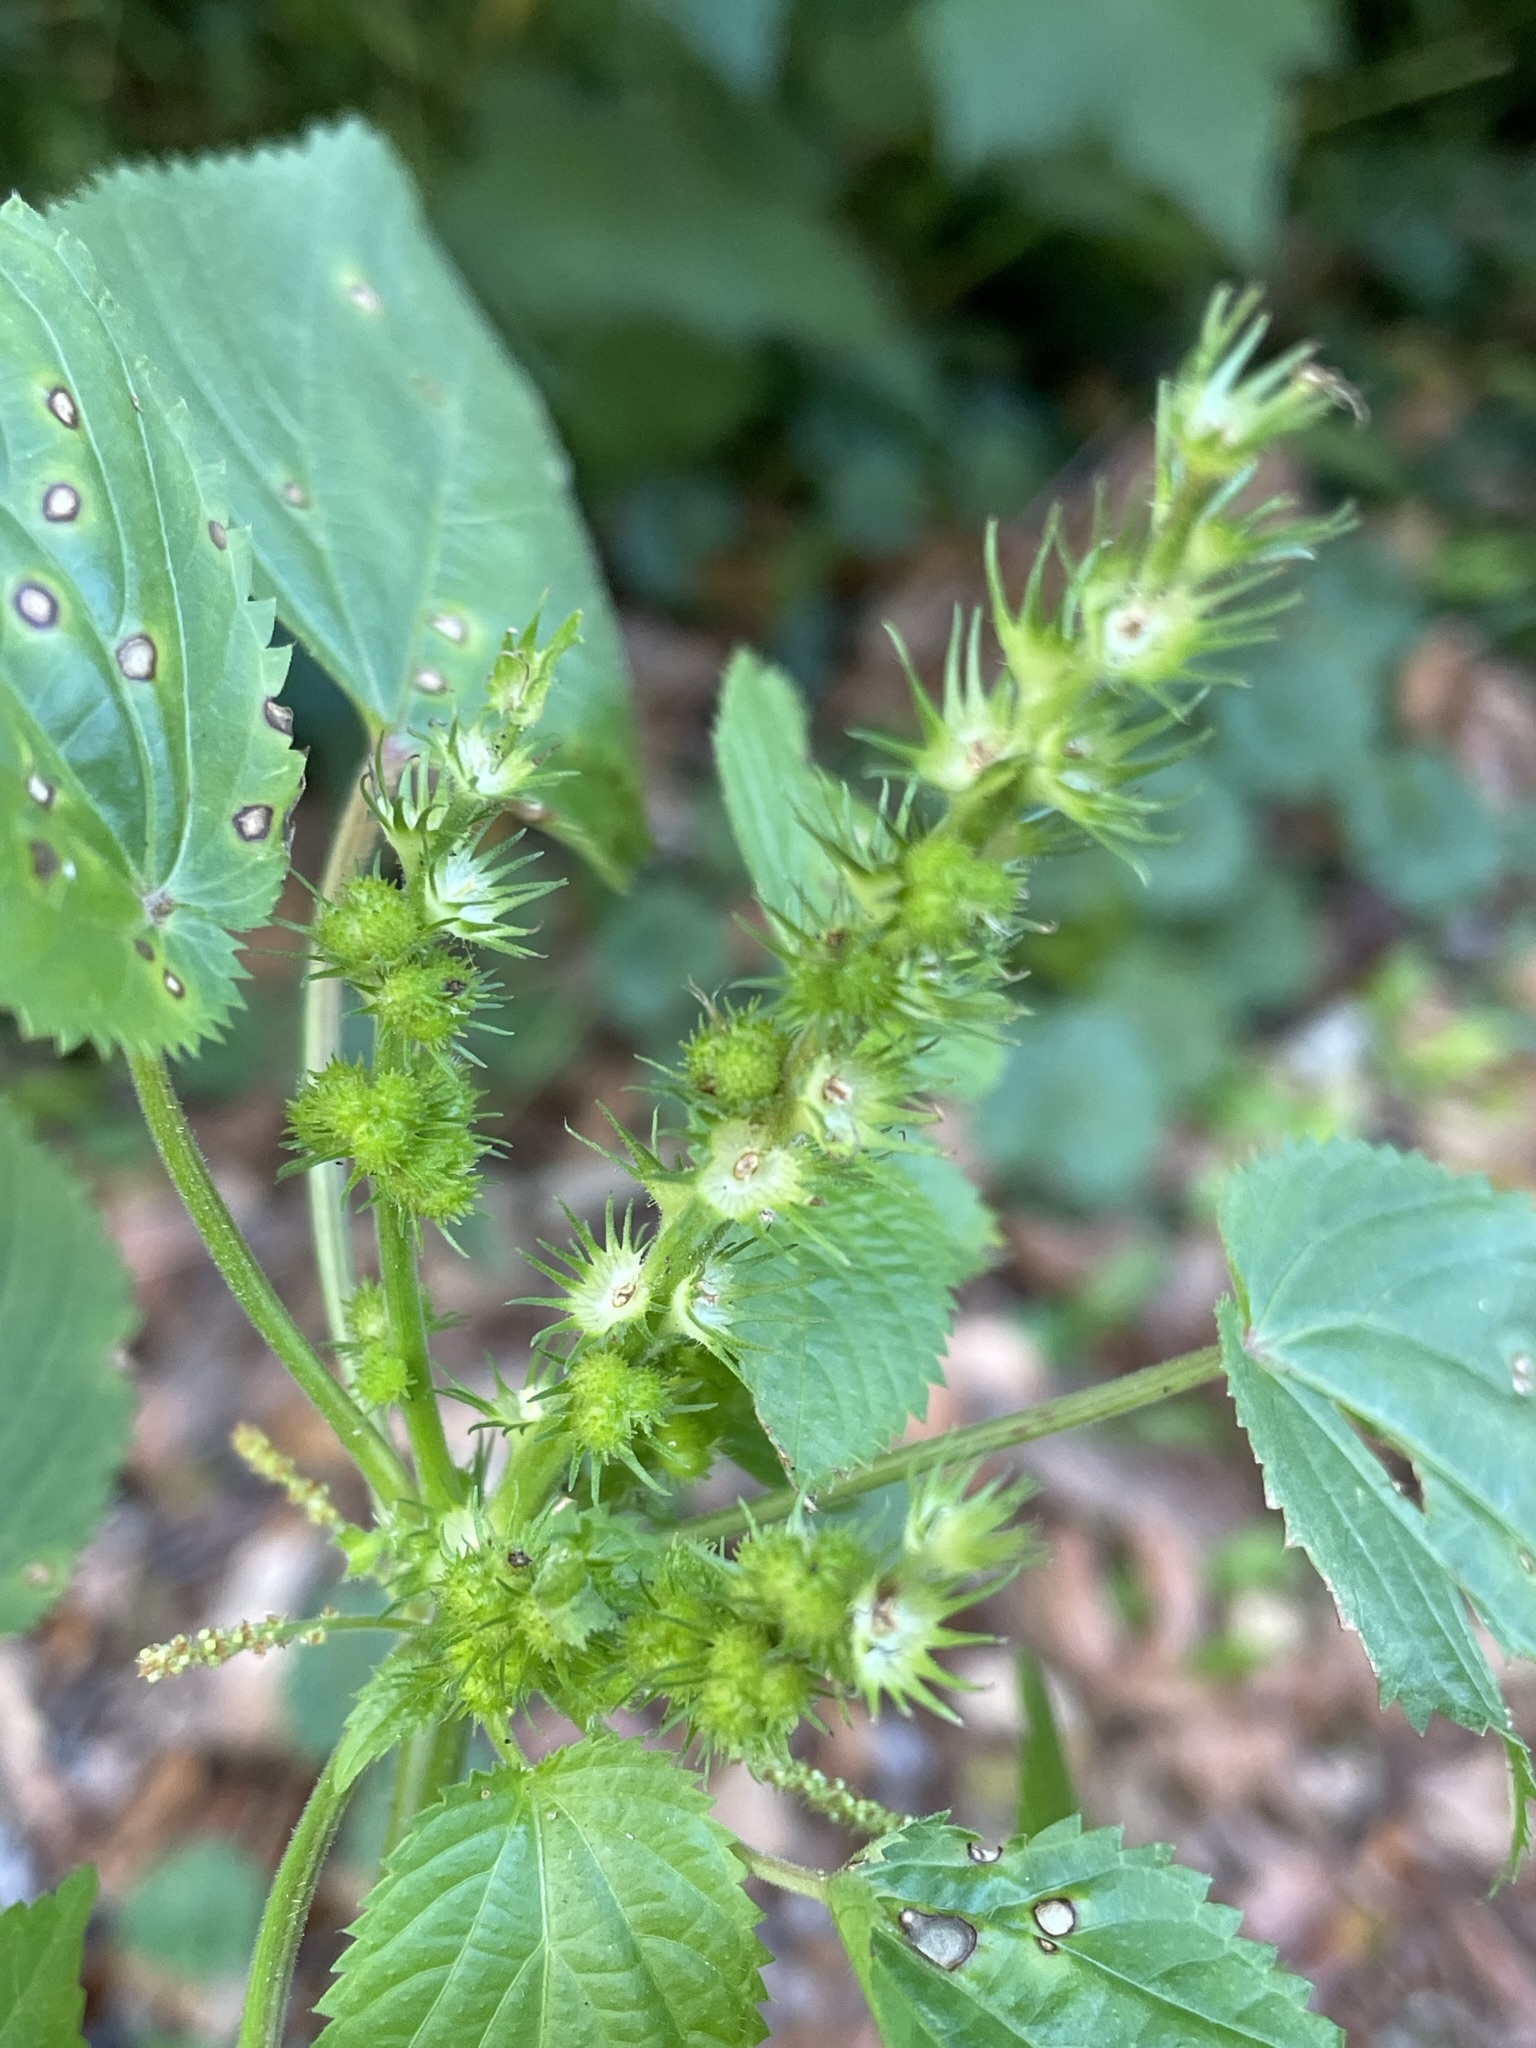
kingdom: Plantae
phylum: Tracheophyta
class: Magnoliopsida
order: Malpighiales
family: Euphorbiaceae
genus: Acalypha
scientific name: Acalypha ostryifolia
